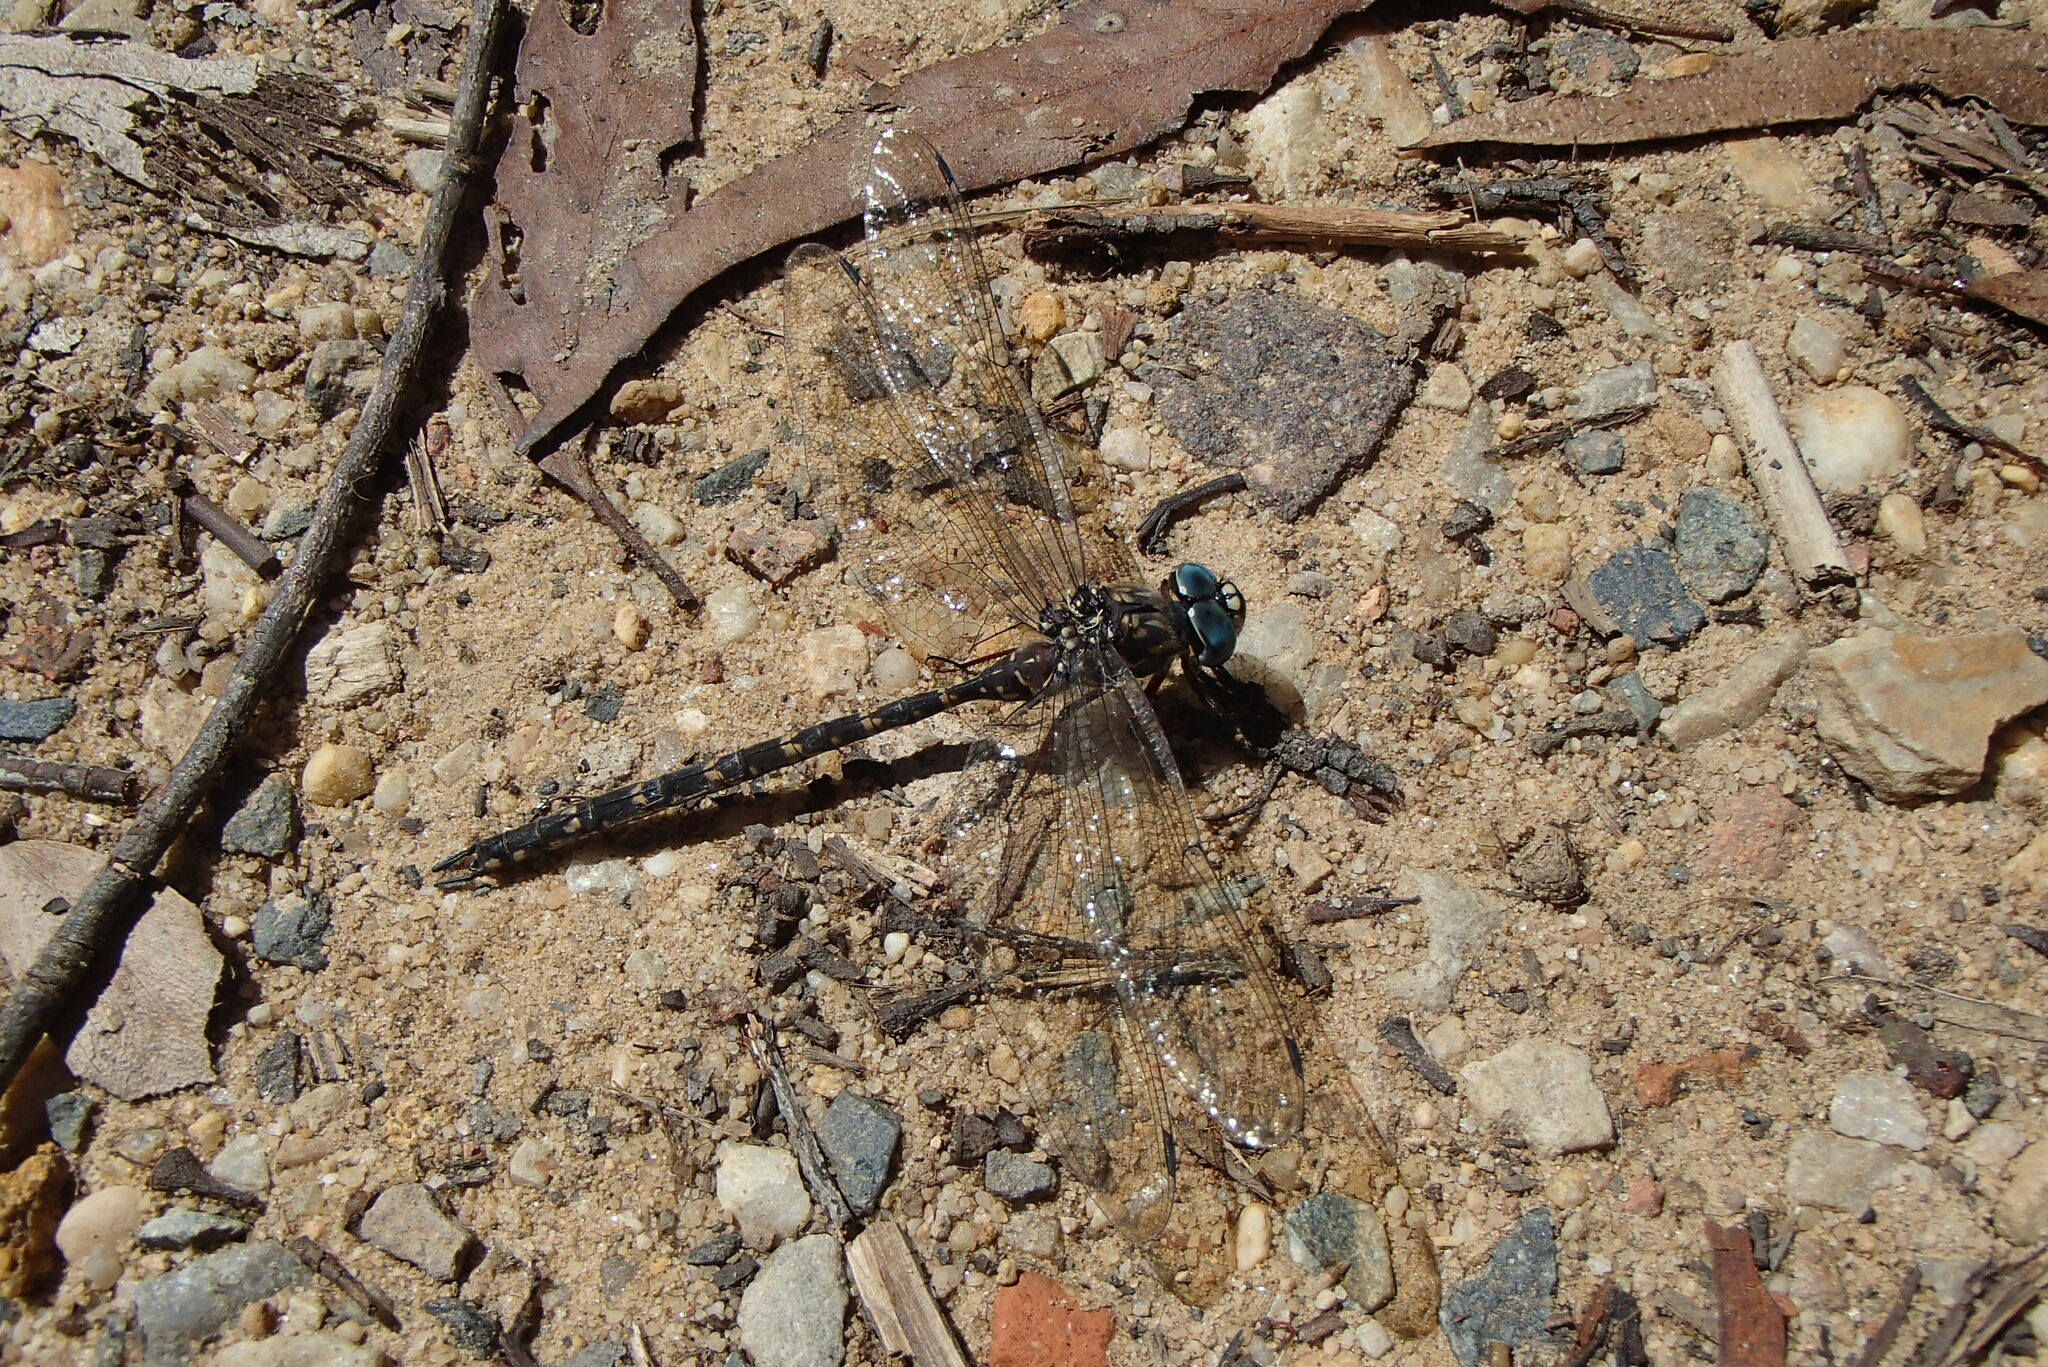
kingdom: Animalia
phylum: Arthropoda
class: Insecta
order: Odonata
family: Aeshnidae
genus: Austroaeschna
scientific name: Austroaeschna obscura
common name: Sydney mountain darner
